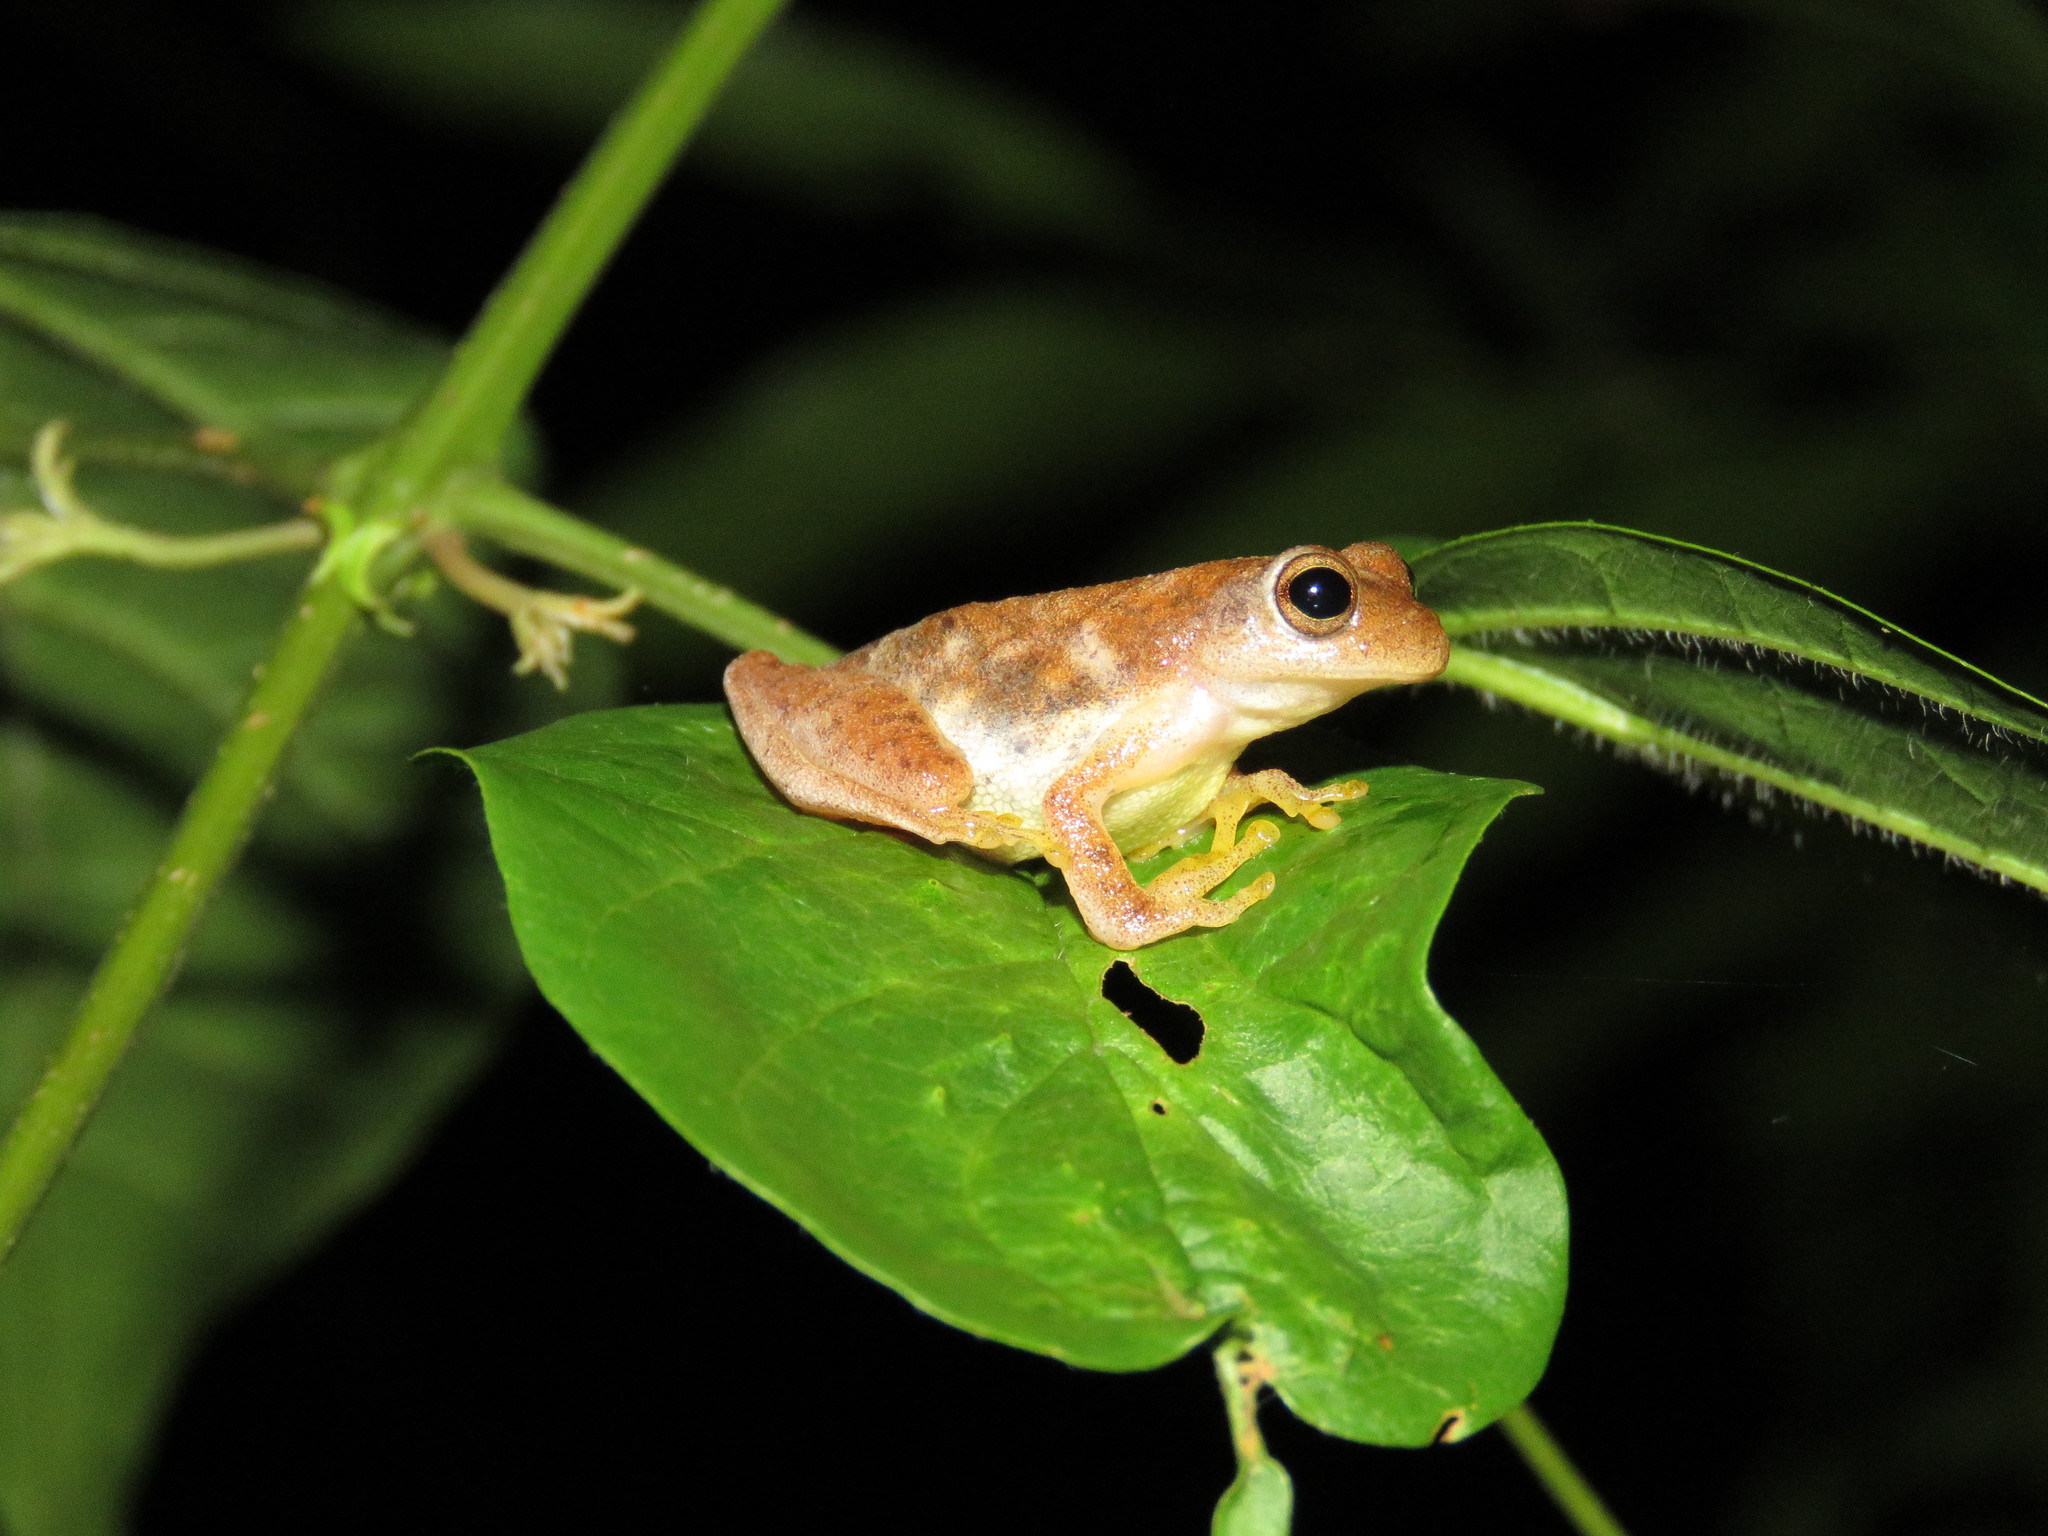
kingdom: Animalia
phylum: Chordata
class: Amphibia
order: Anura
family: Hylidae
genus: Dendropsophus
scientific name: Dendropsophus minutus
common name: Lesser treefrog
